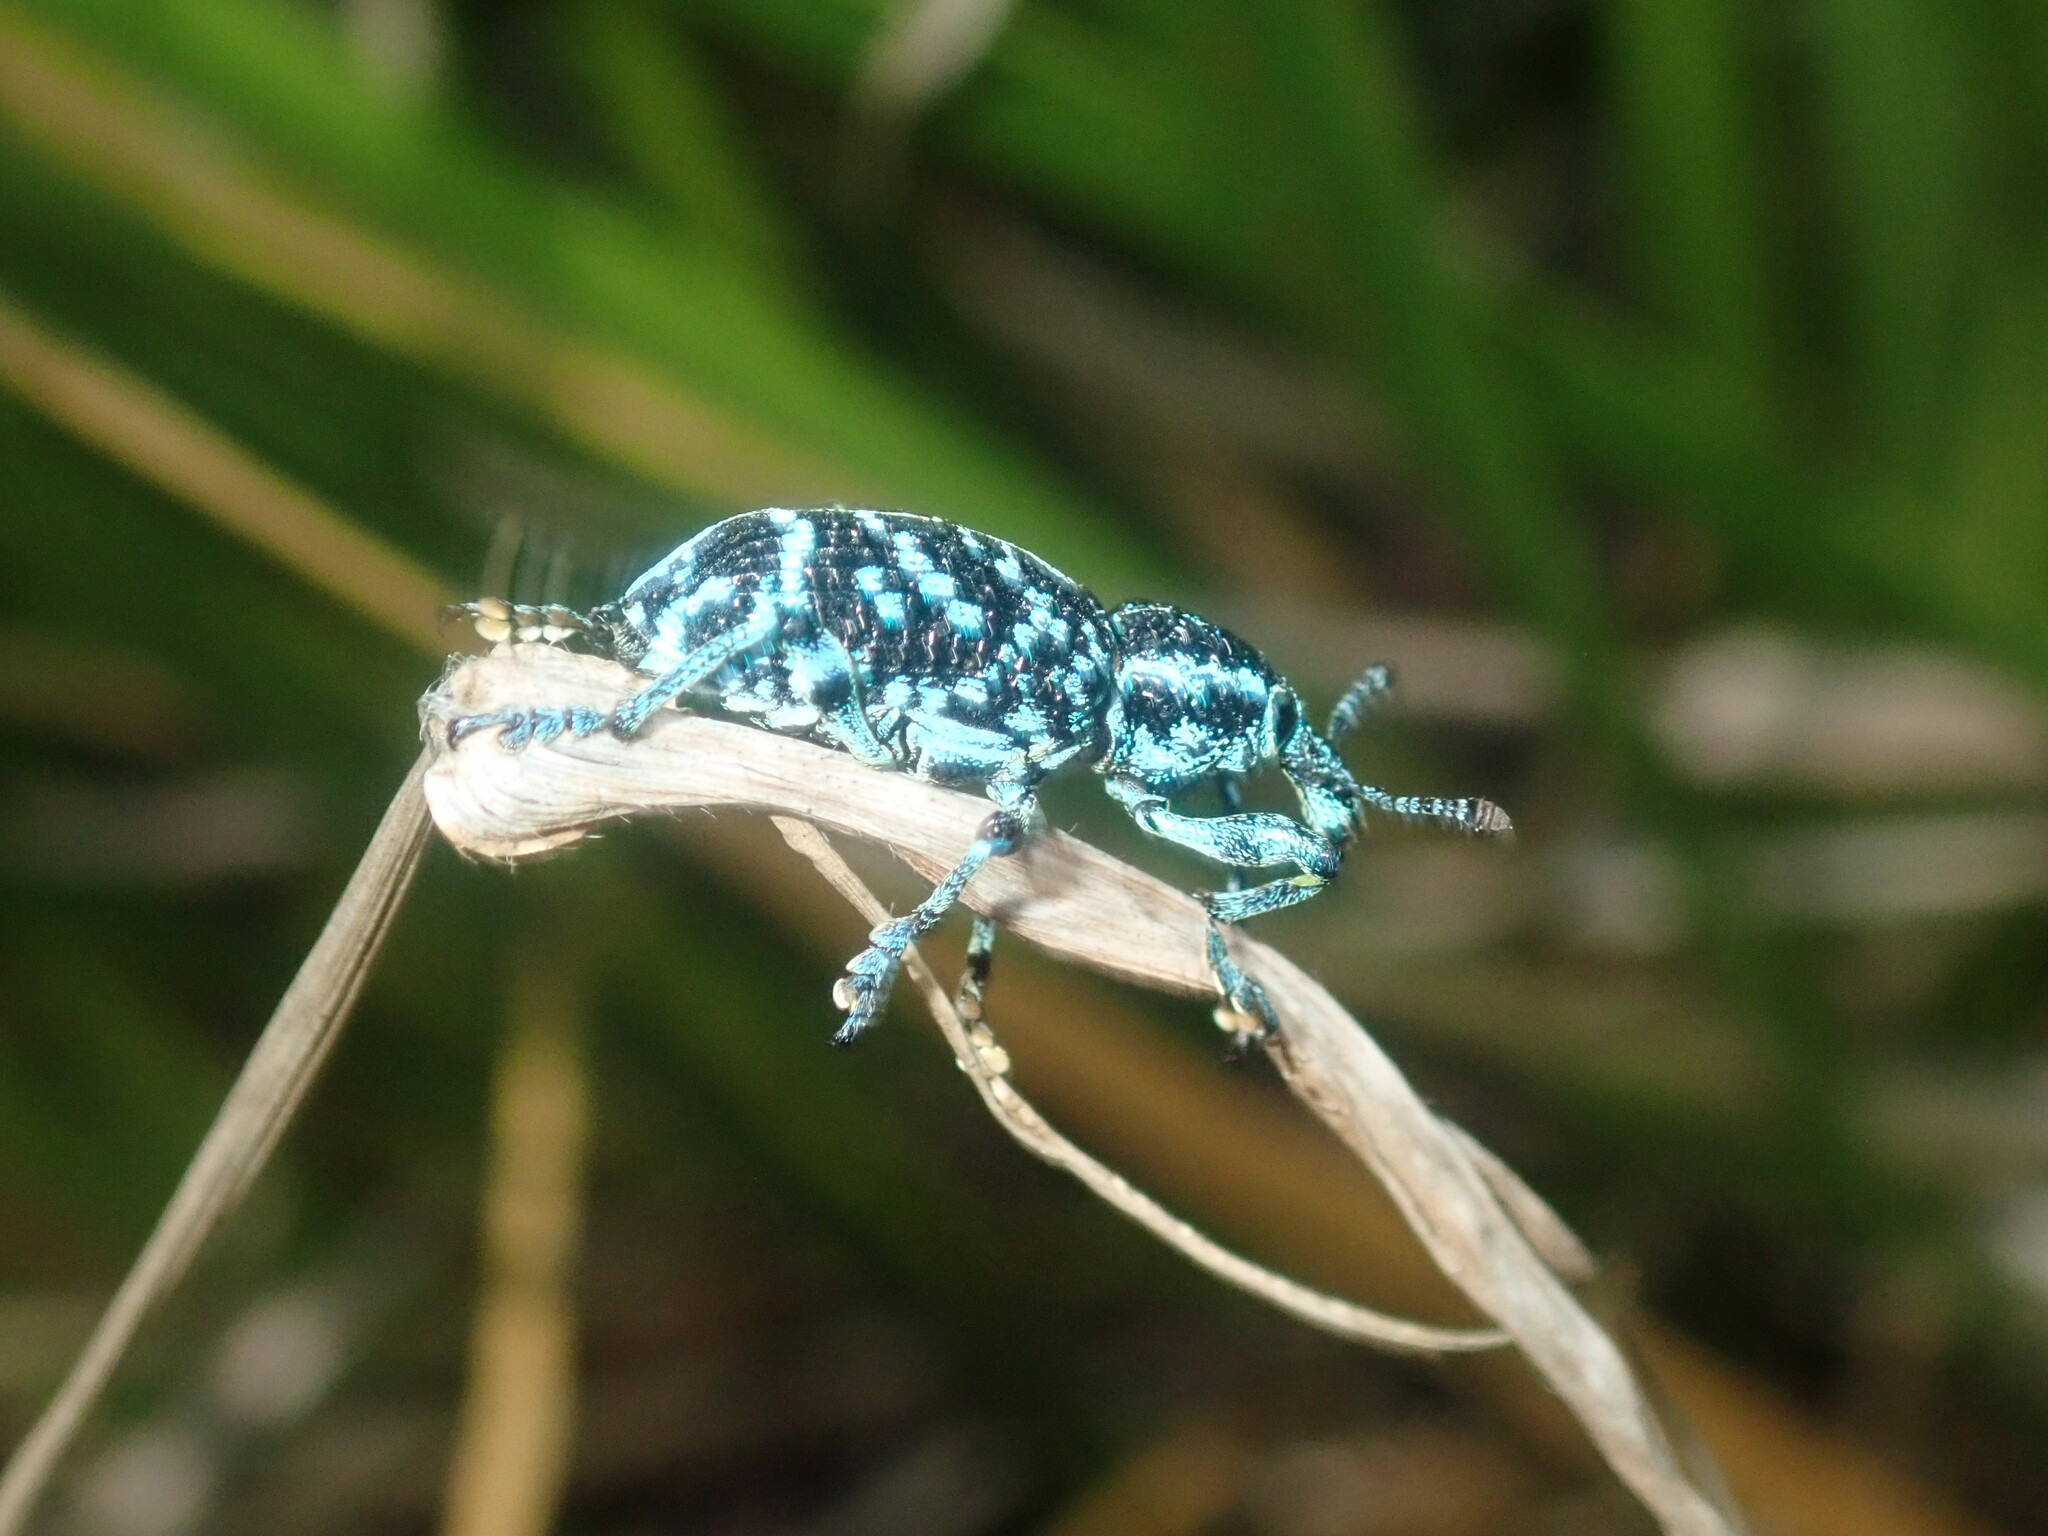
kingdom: Animalia
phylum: Arthropoda
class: Insecta
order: Coleoptera
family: Curculionidae
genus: Chrysolopus
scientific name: Chrysolopus spectabilis
